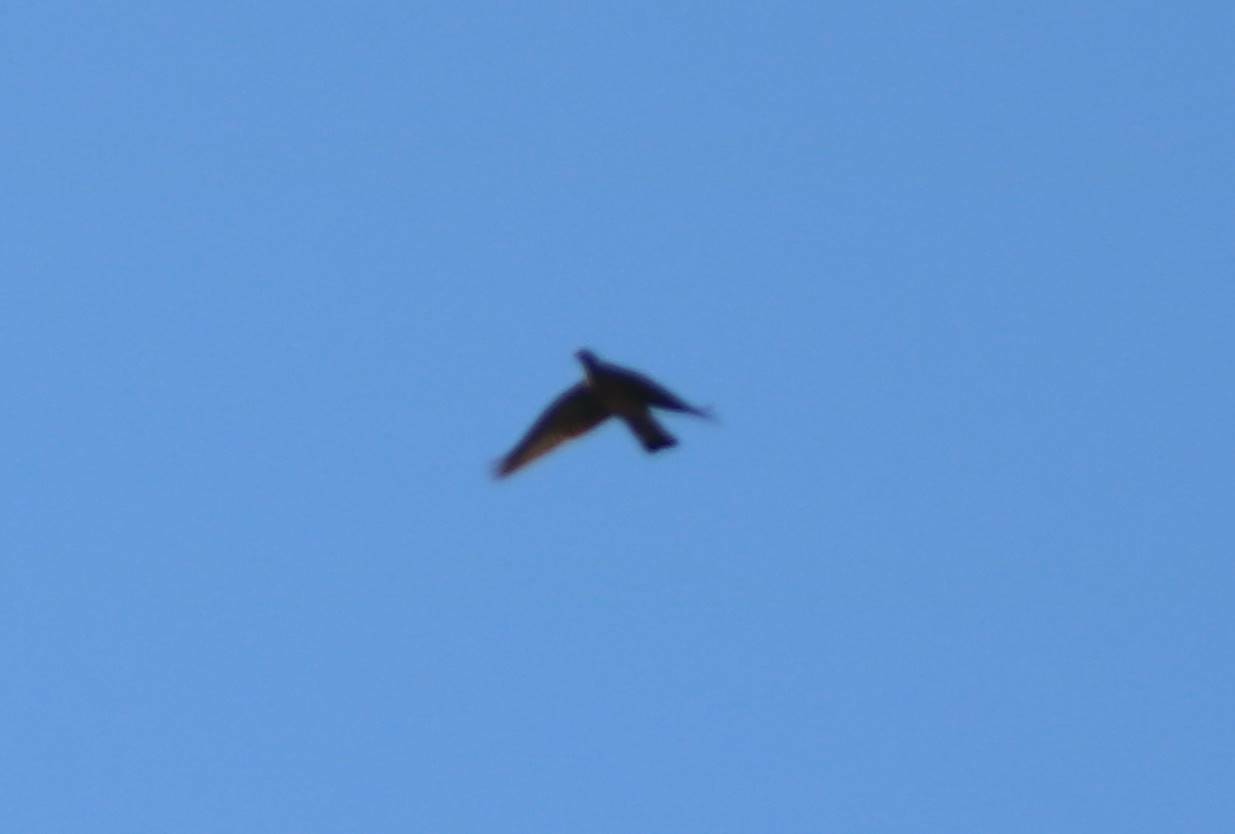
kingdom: Animalia
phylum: Chordata
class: Aves
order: Columbiformes
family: Columbidae
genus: Columba
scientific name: Columba palumbus
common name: Common wood pigeon
